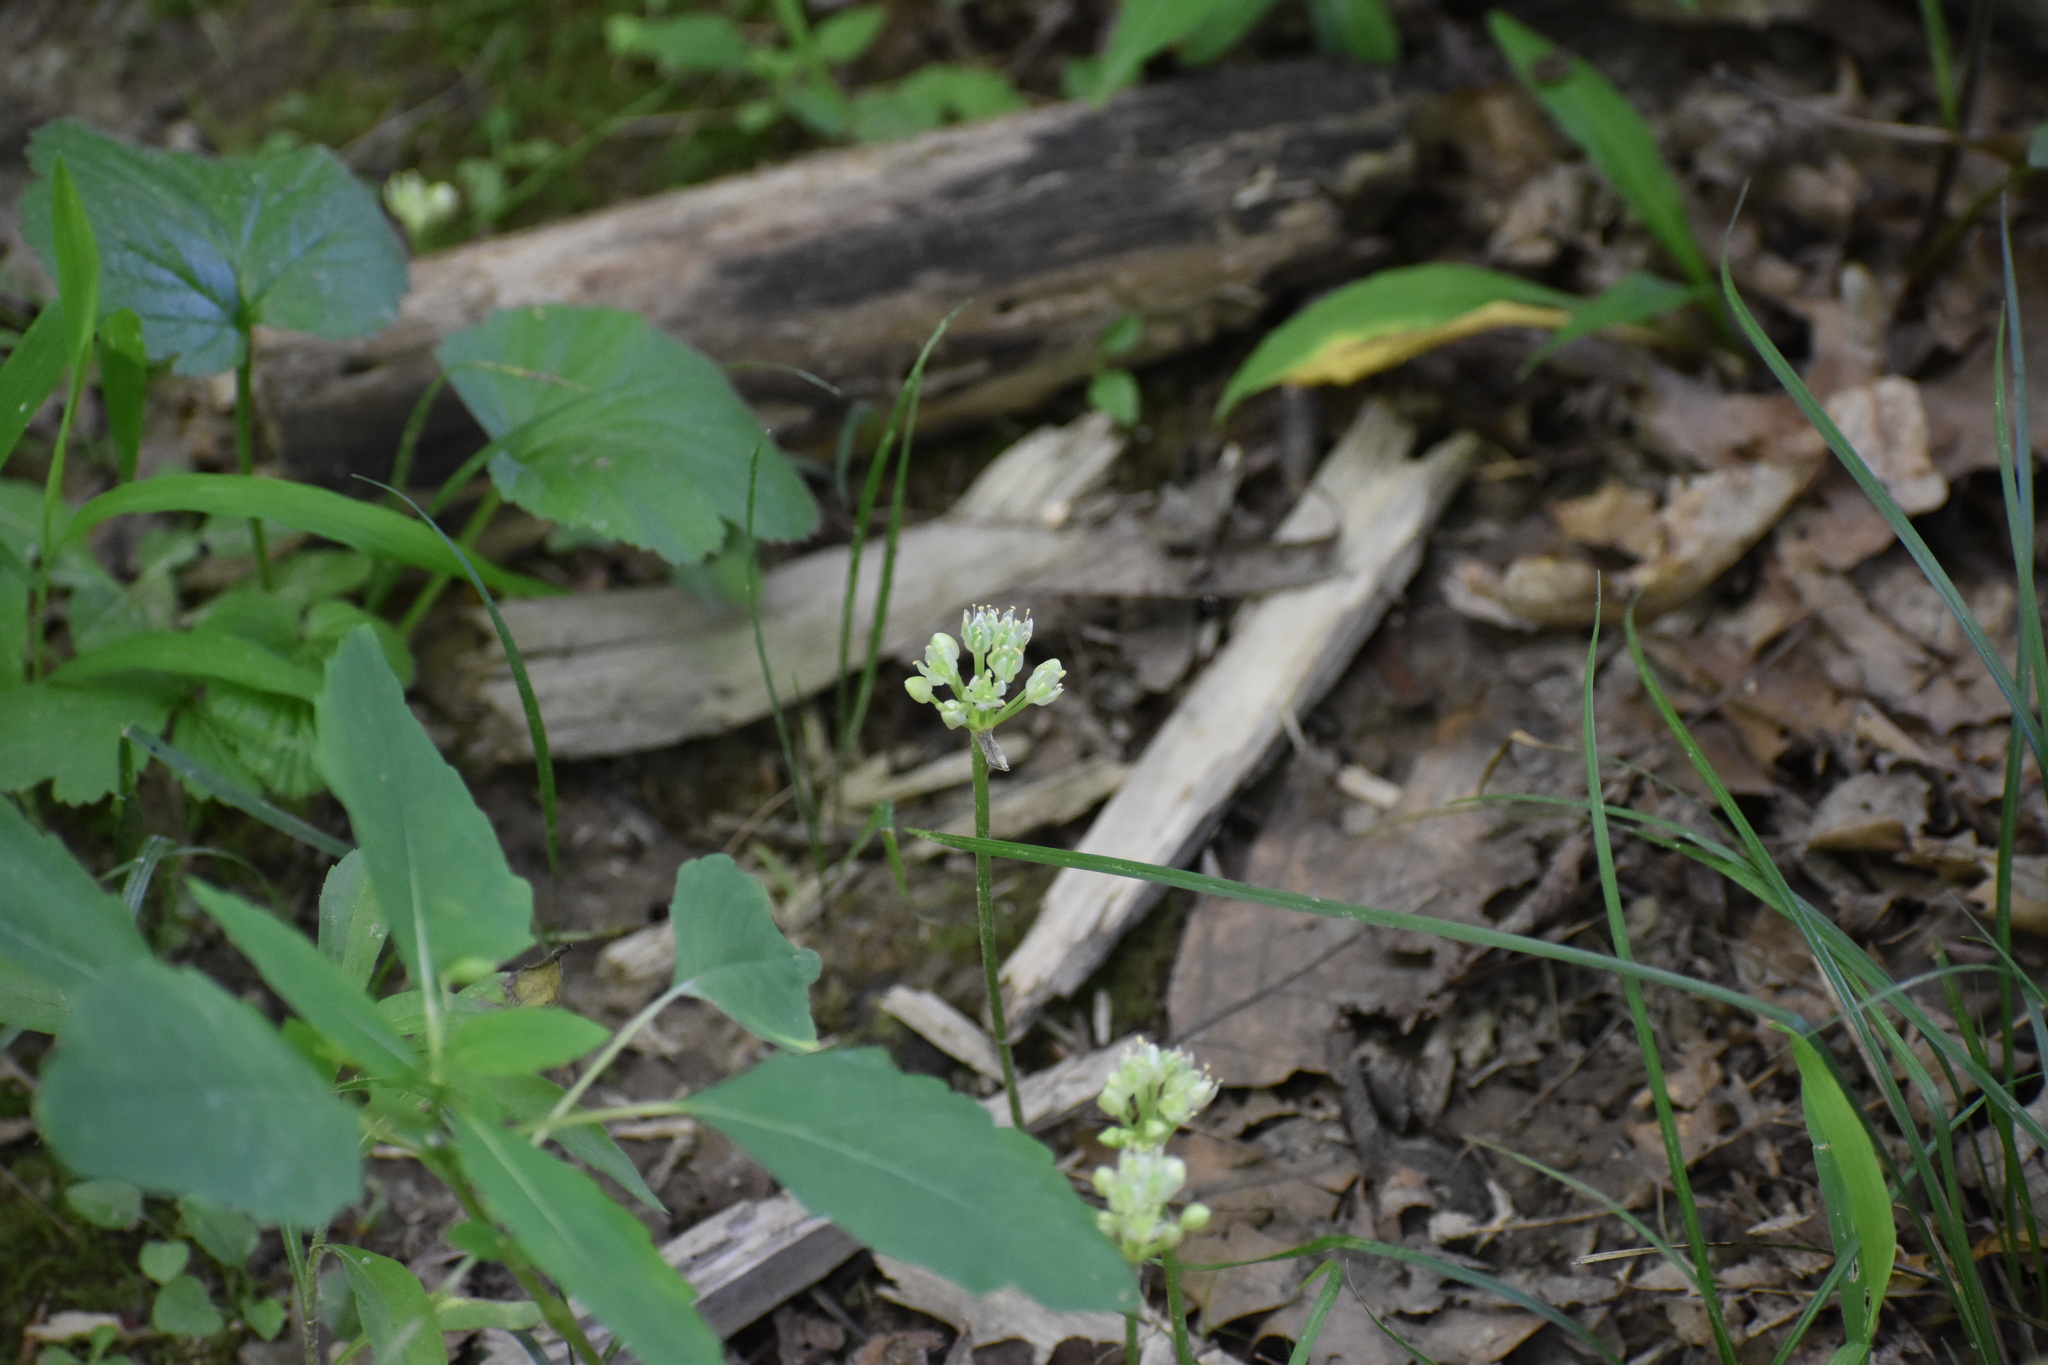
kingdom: Plantae
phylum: Tracheophyta
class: Liliopsida
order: Asparagales
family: Amaryllidaceae
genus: Allium
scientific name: Allium tricoccum
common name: Ramp
